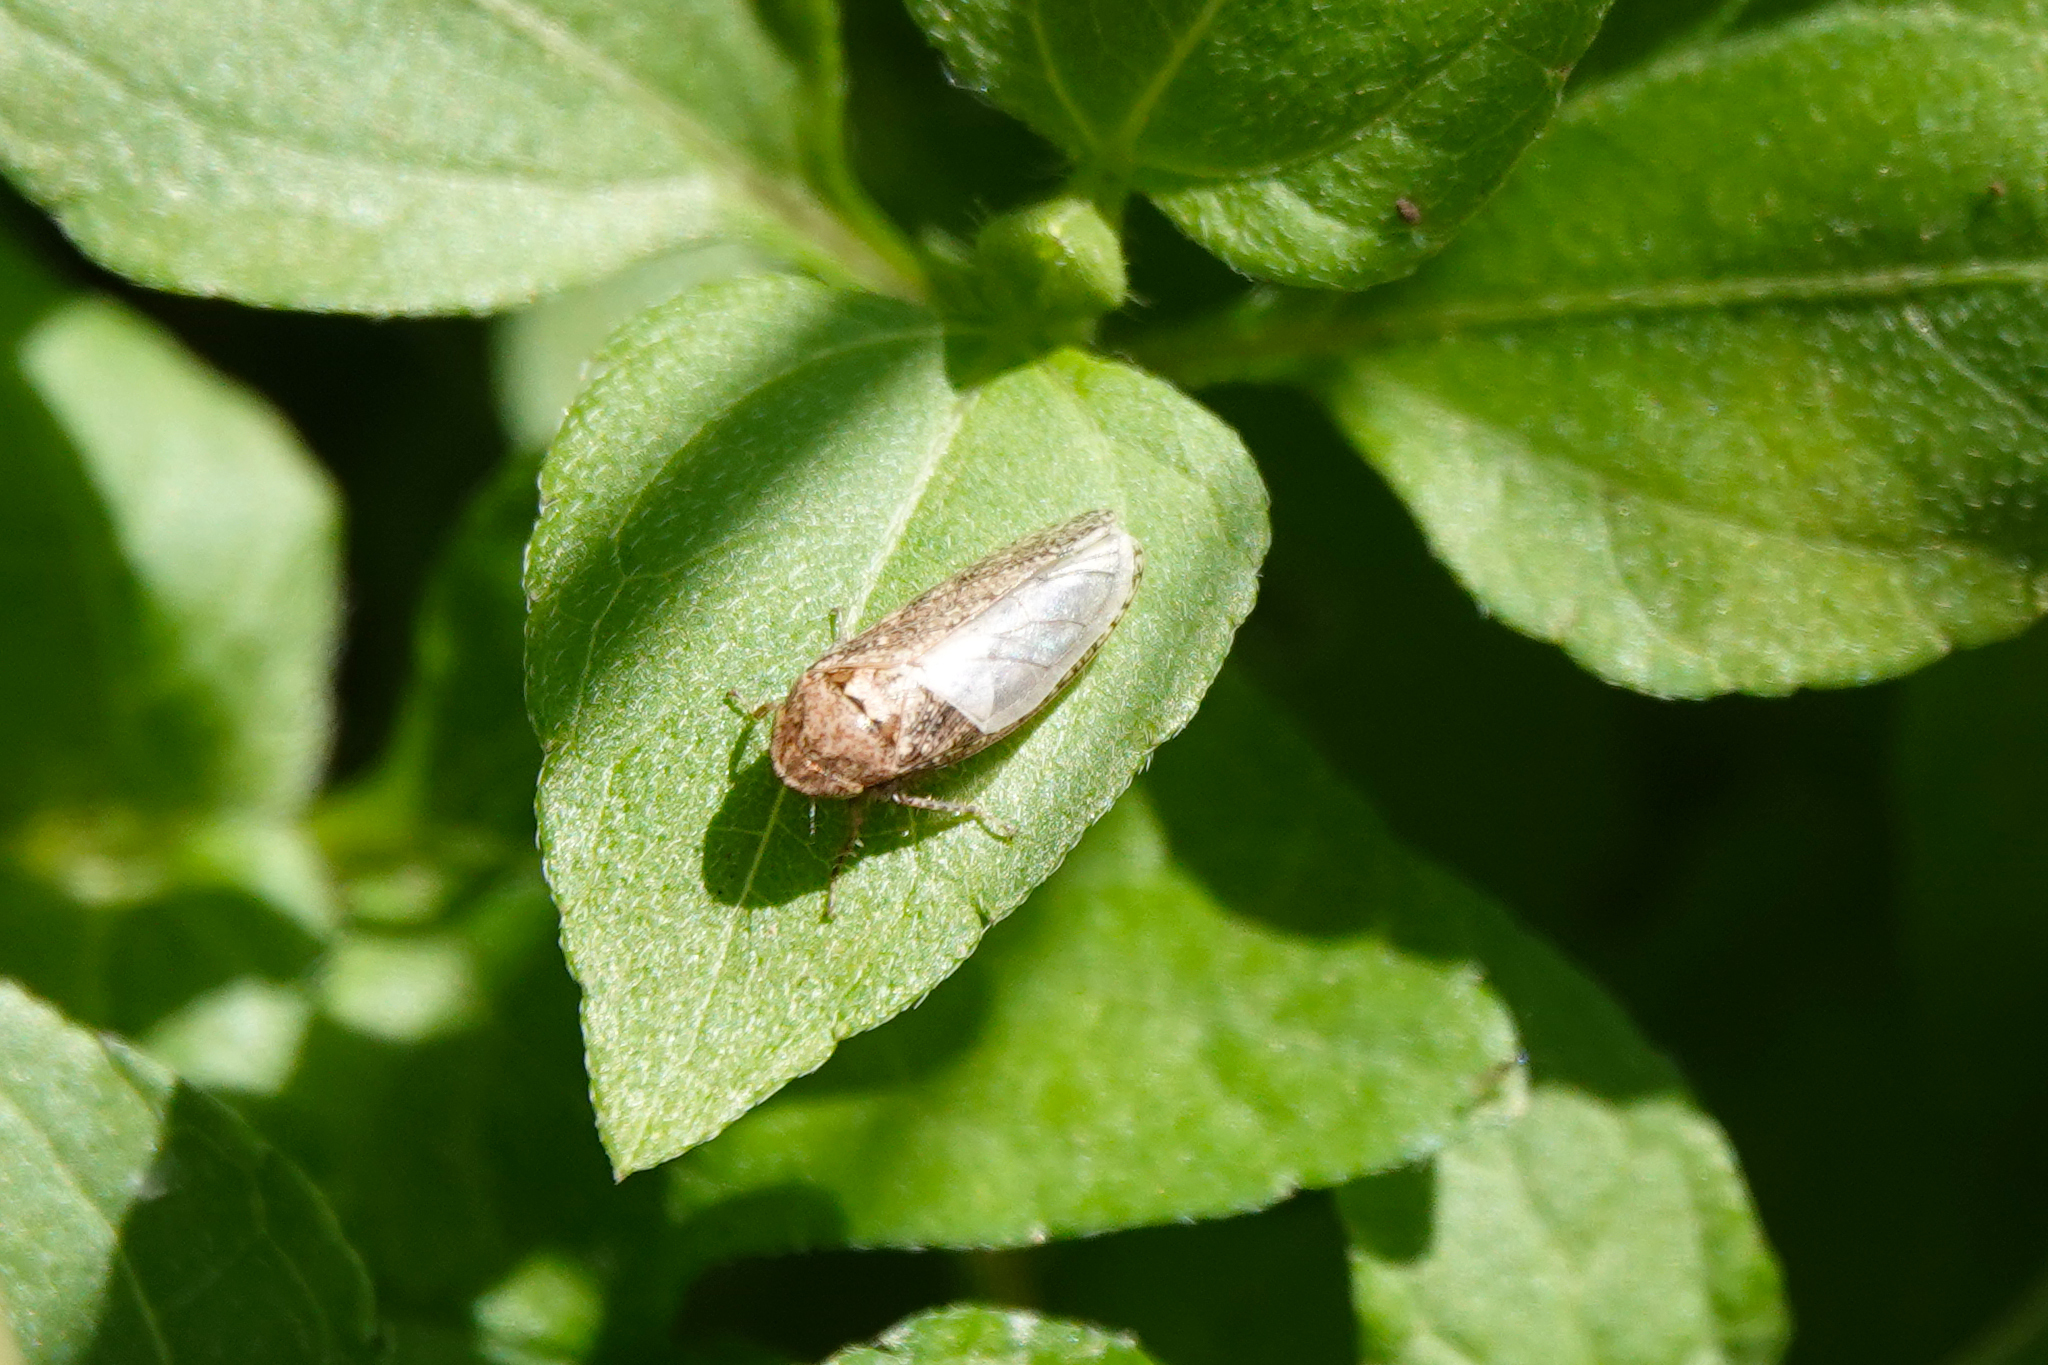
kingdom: Animalia
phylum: Arthropoda
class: Insecta
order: Hemiptera
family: Cicadellidae
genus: Curtara
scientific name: Curtara insularis
